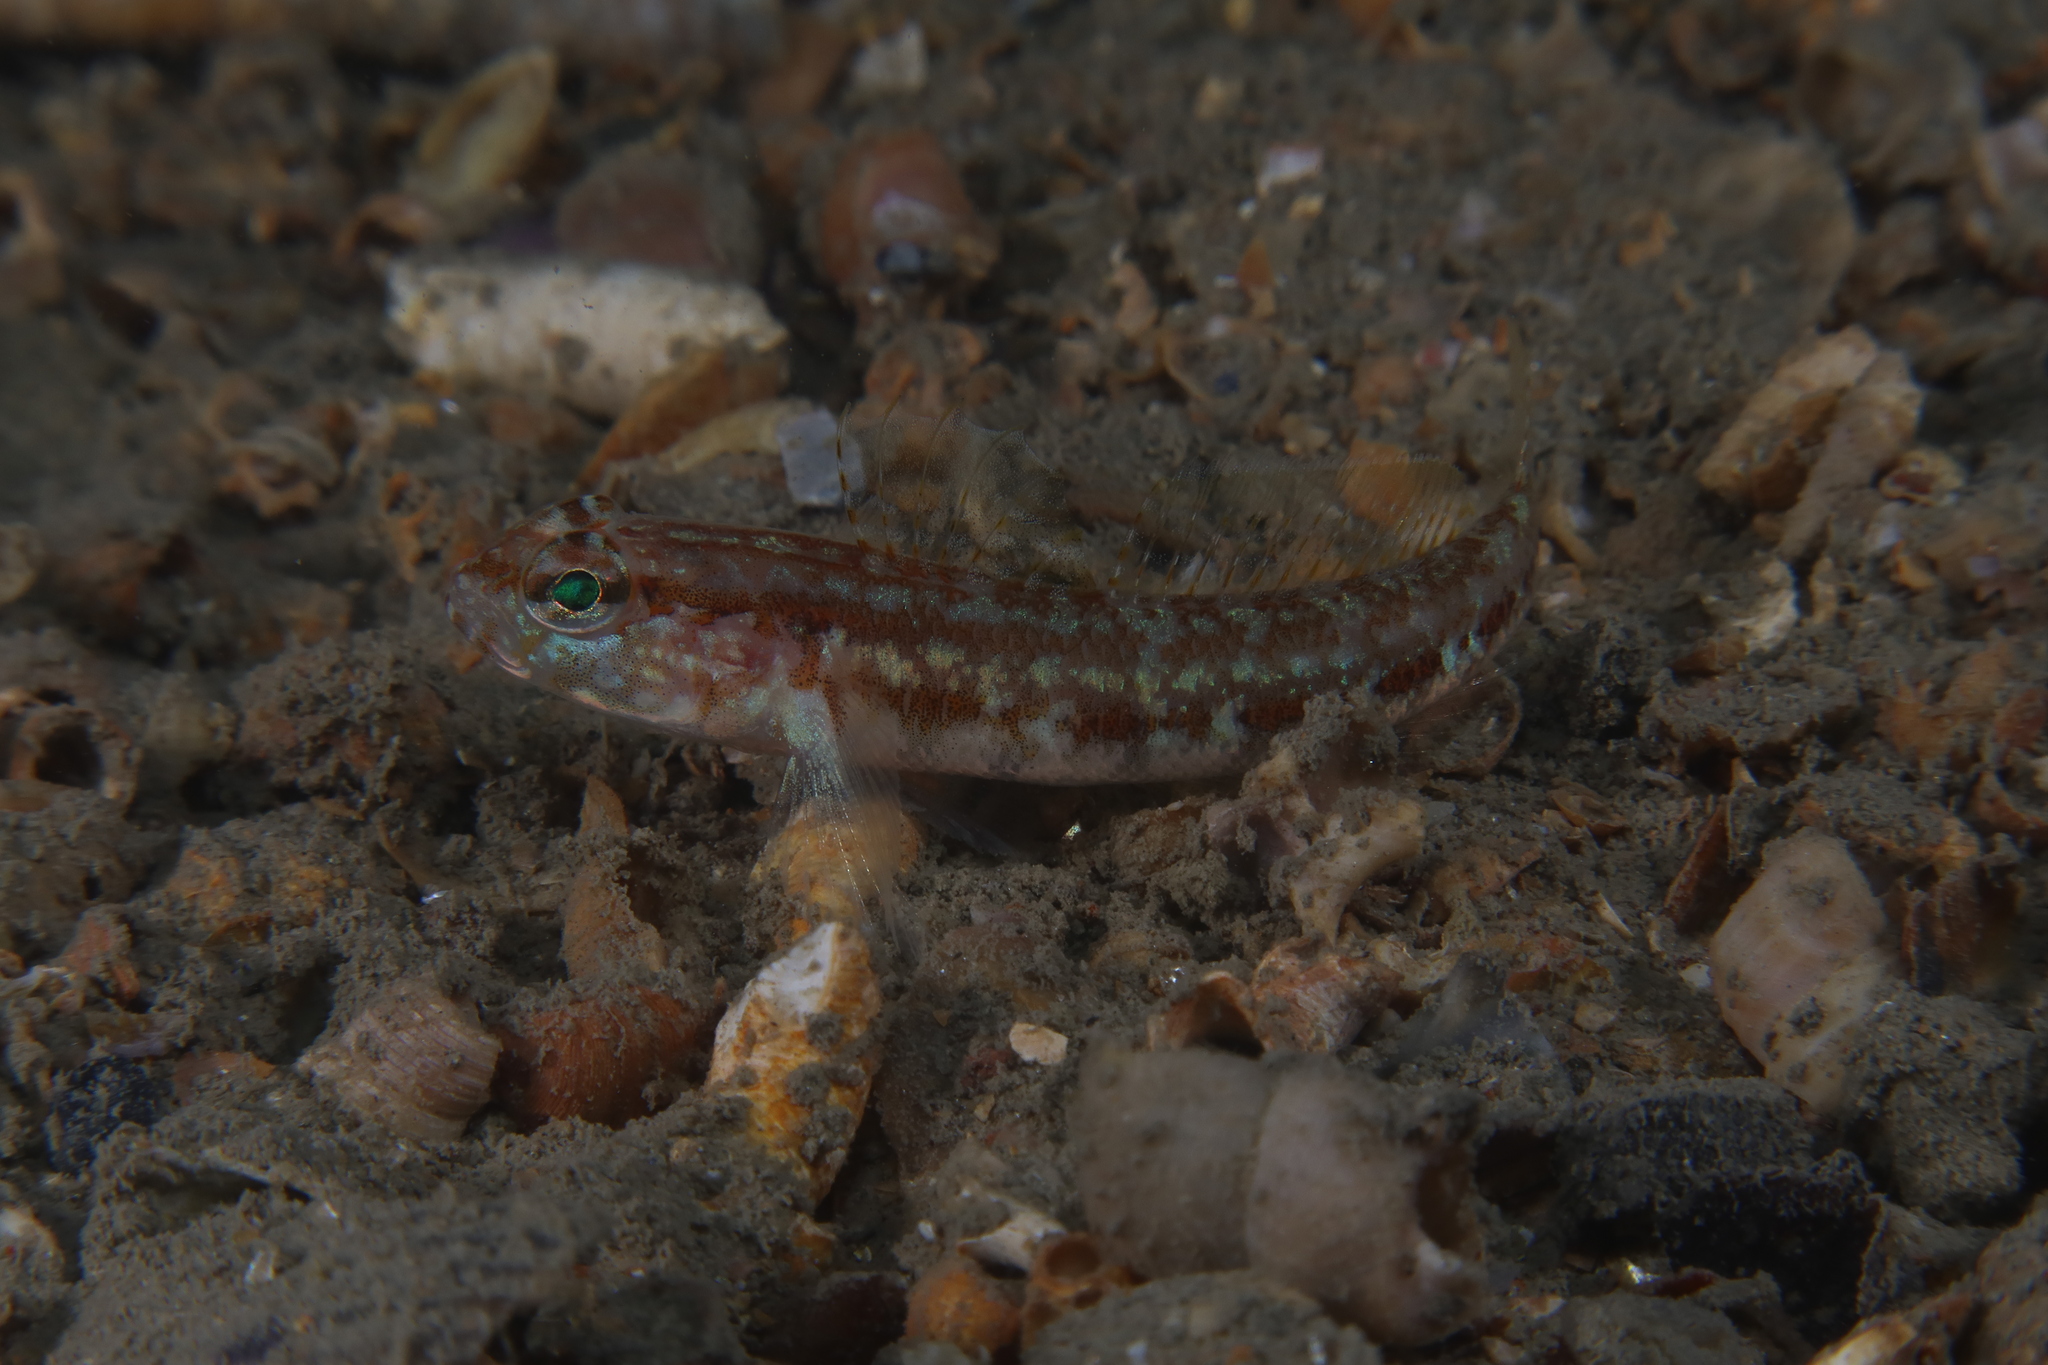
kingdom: Animalia
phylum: Chordata
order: Perciformes
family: Gobiidae
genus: Gobius
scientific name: Gobius xoriguer
